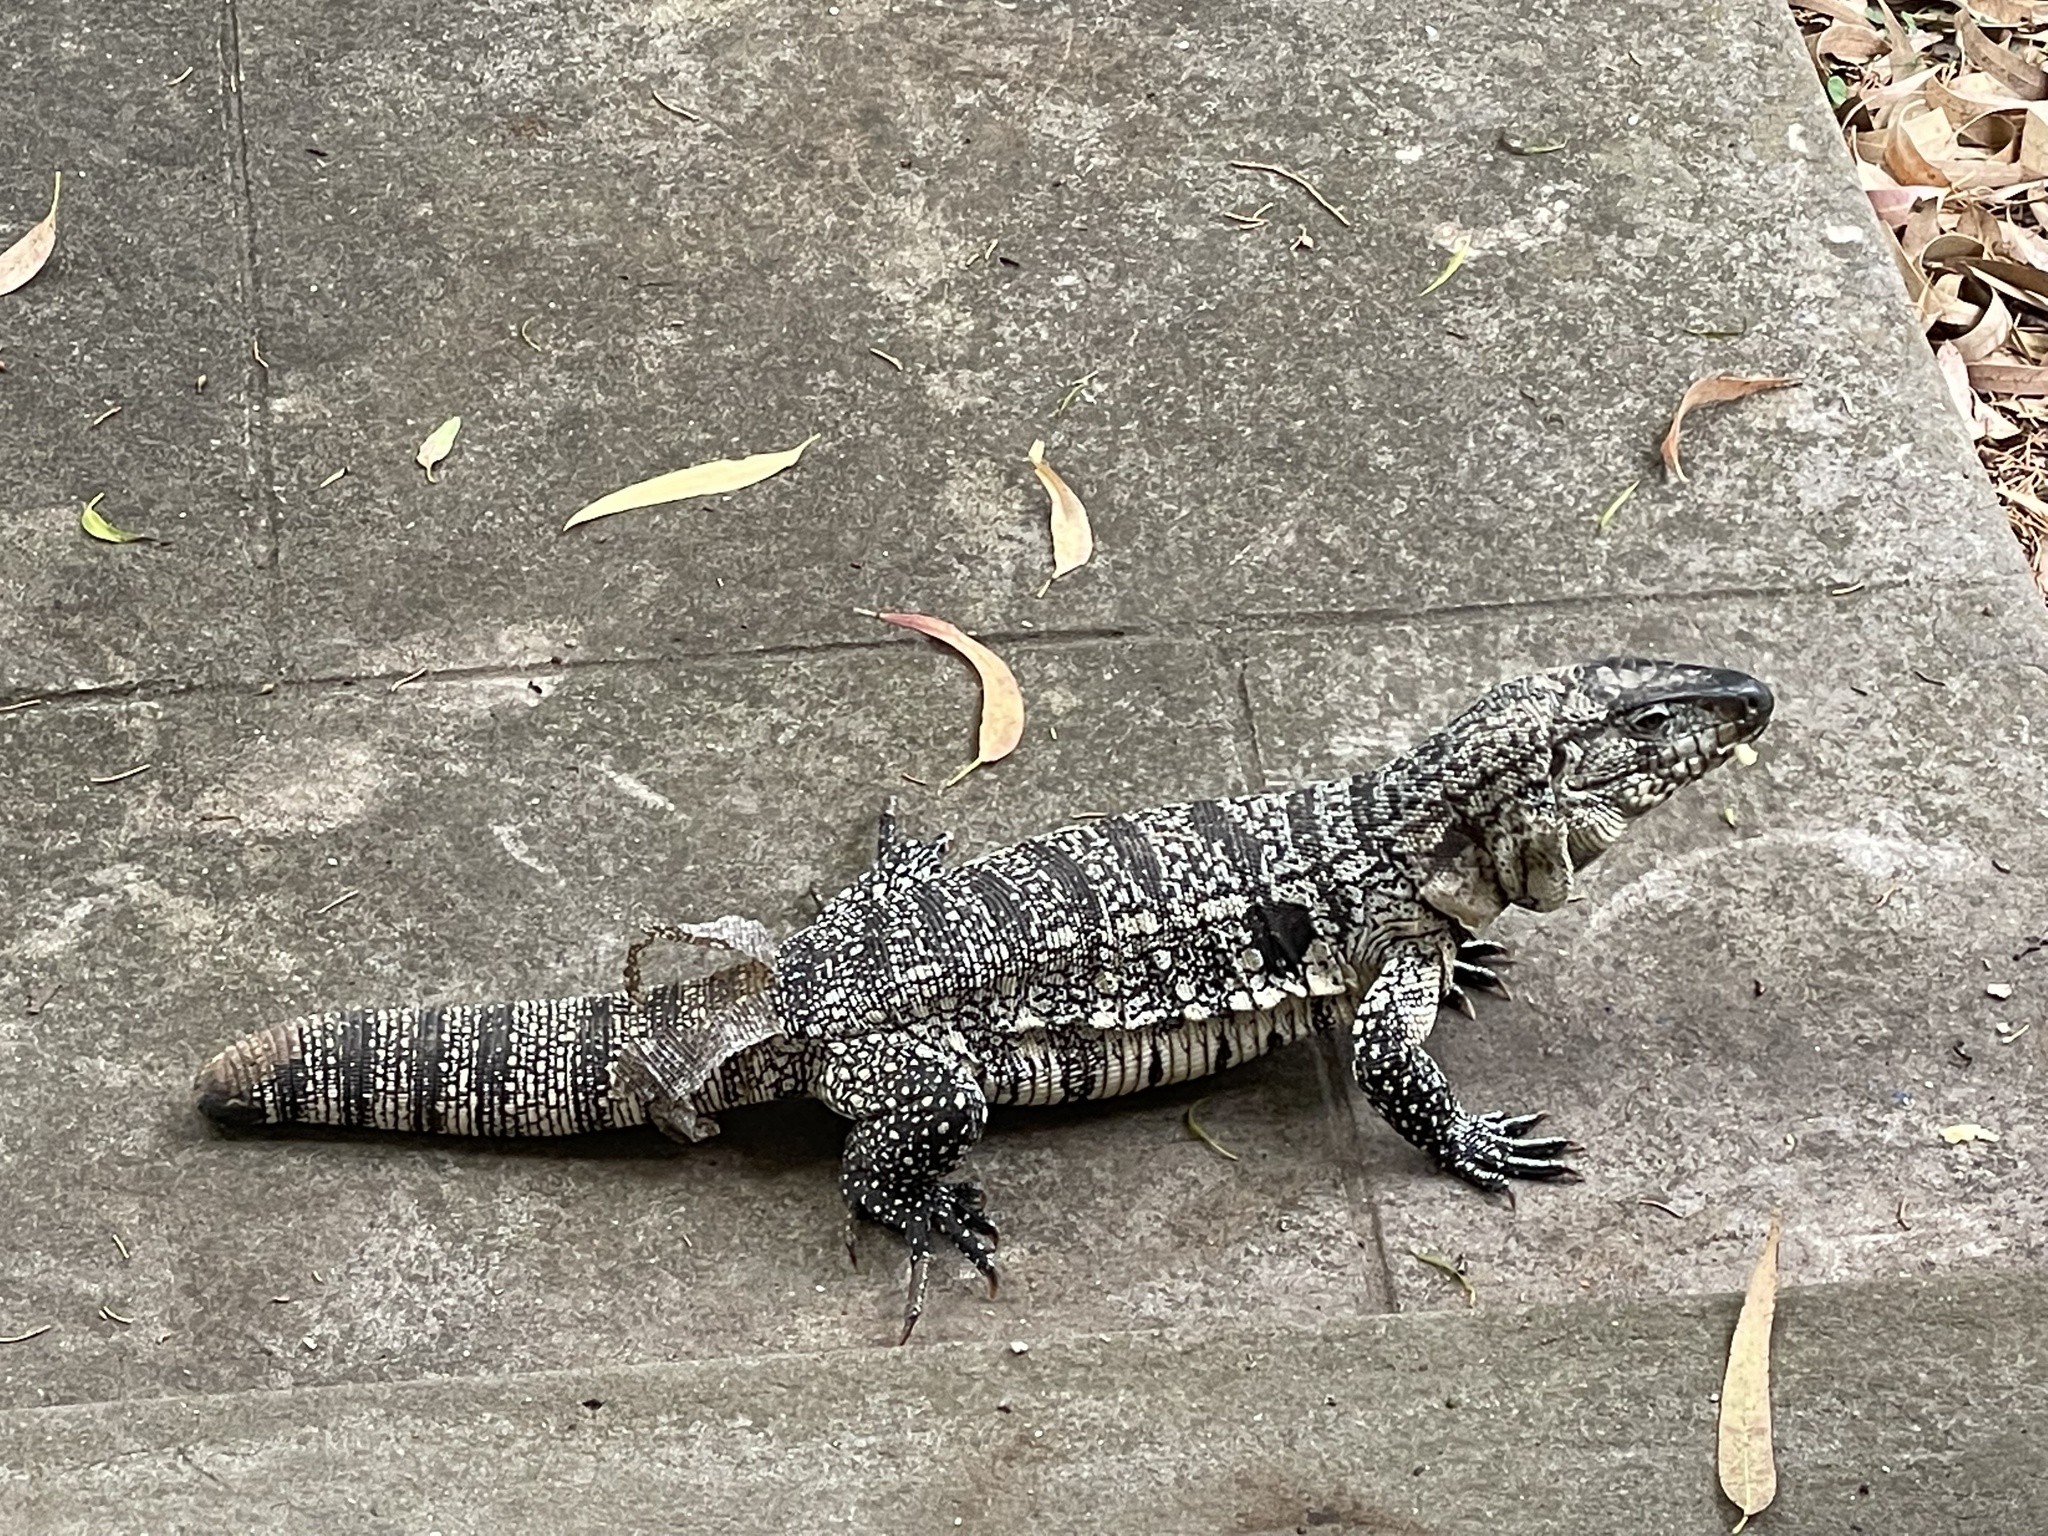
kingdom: Animalia
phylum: Chordata
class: Squamata
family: Teiidae
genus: Salvator
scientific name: Salvator merianae
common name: Argentine black and white tegu
